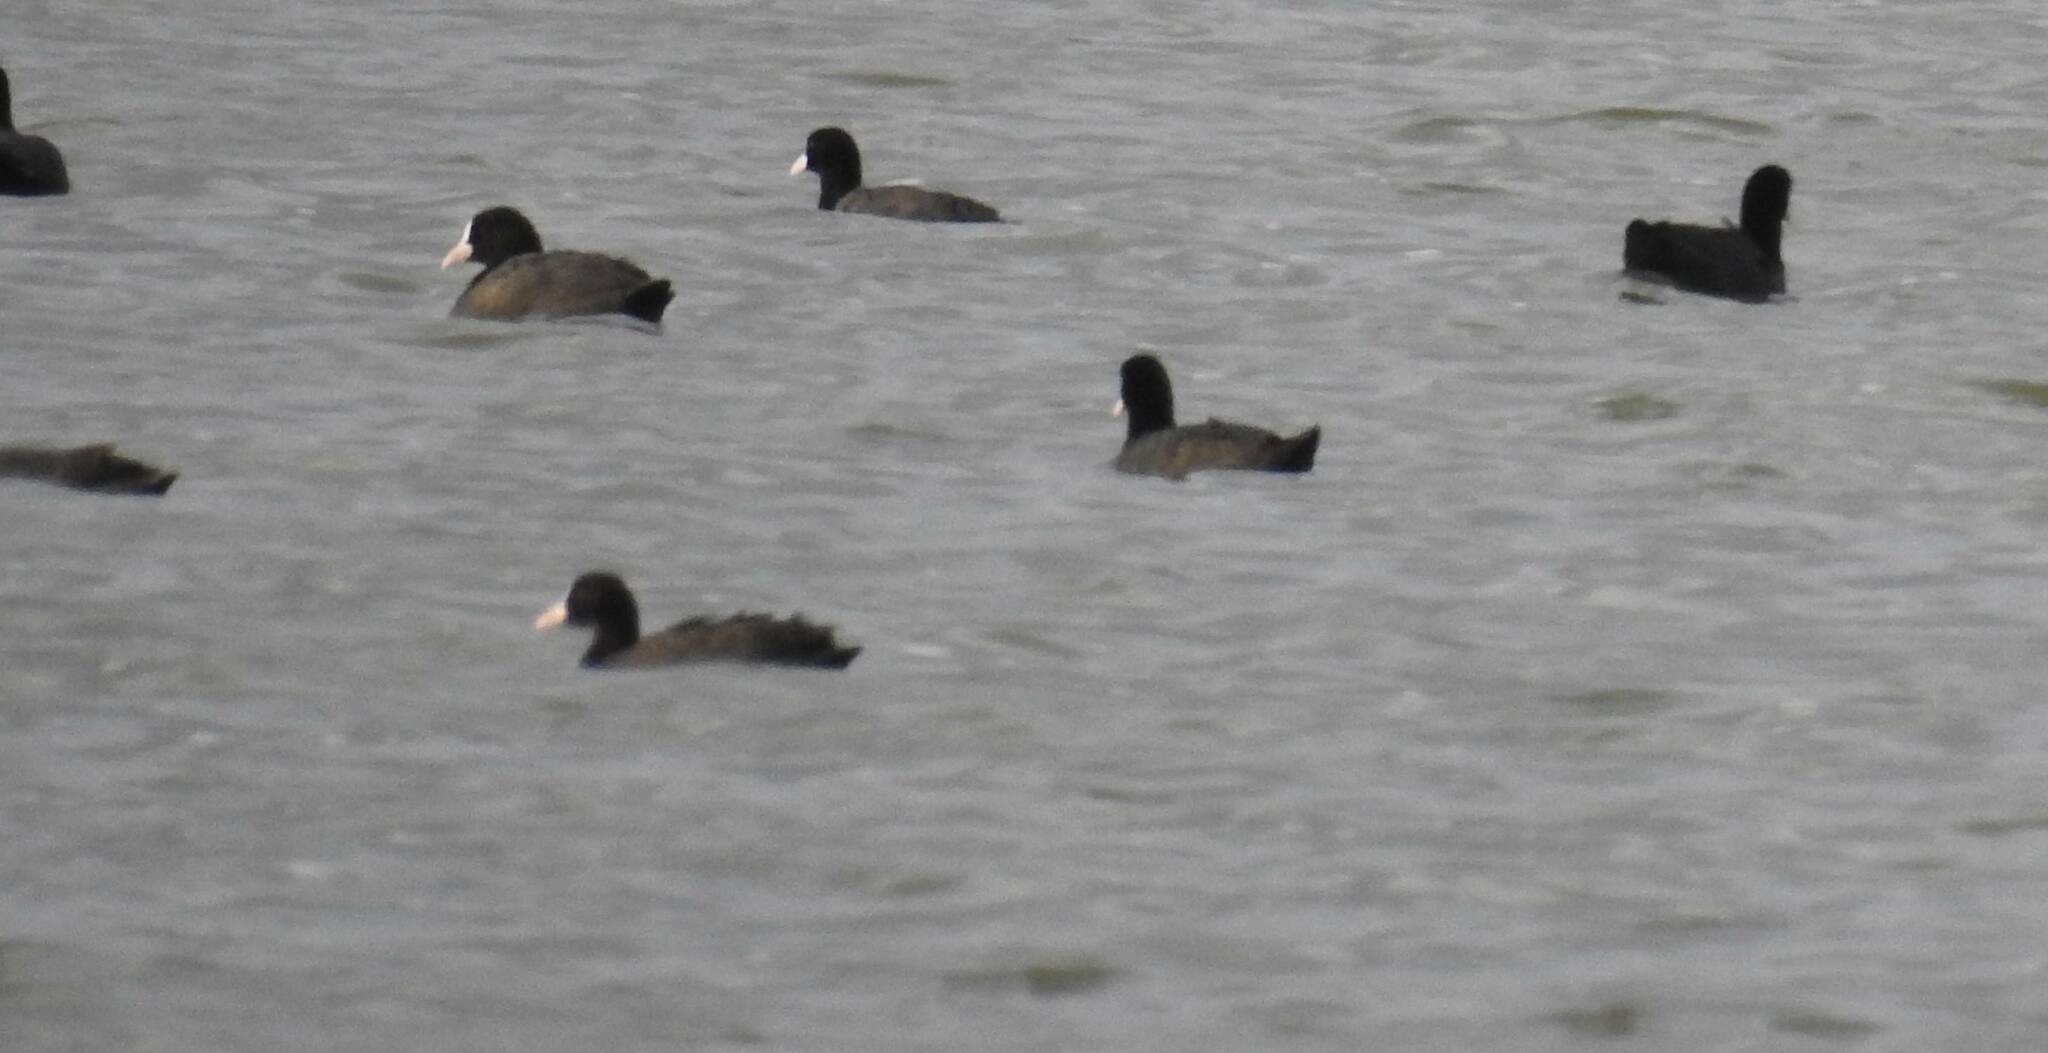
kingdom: Animalia
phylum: Chordata
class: Aves
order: Gruiformes
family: Rallidae
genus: Fulica
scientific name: Fulica atra
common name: Eurasian coot
